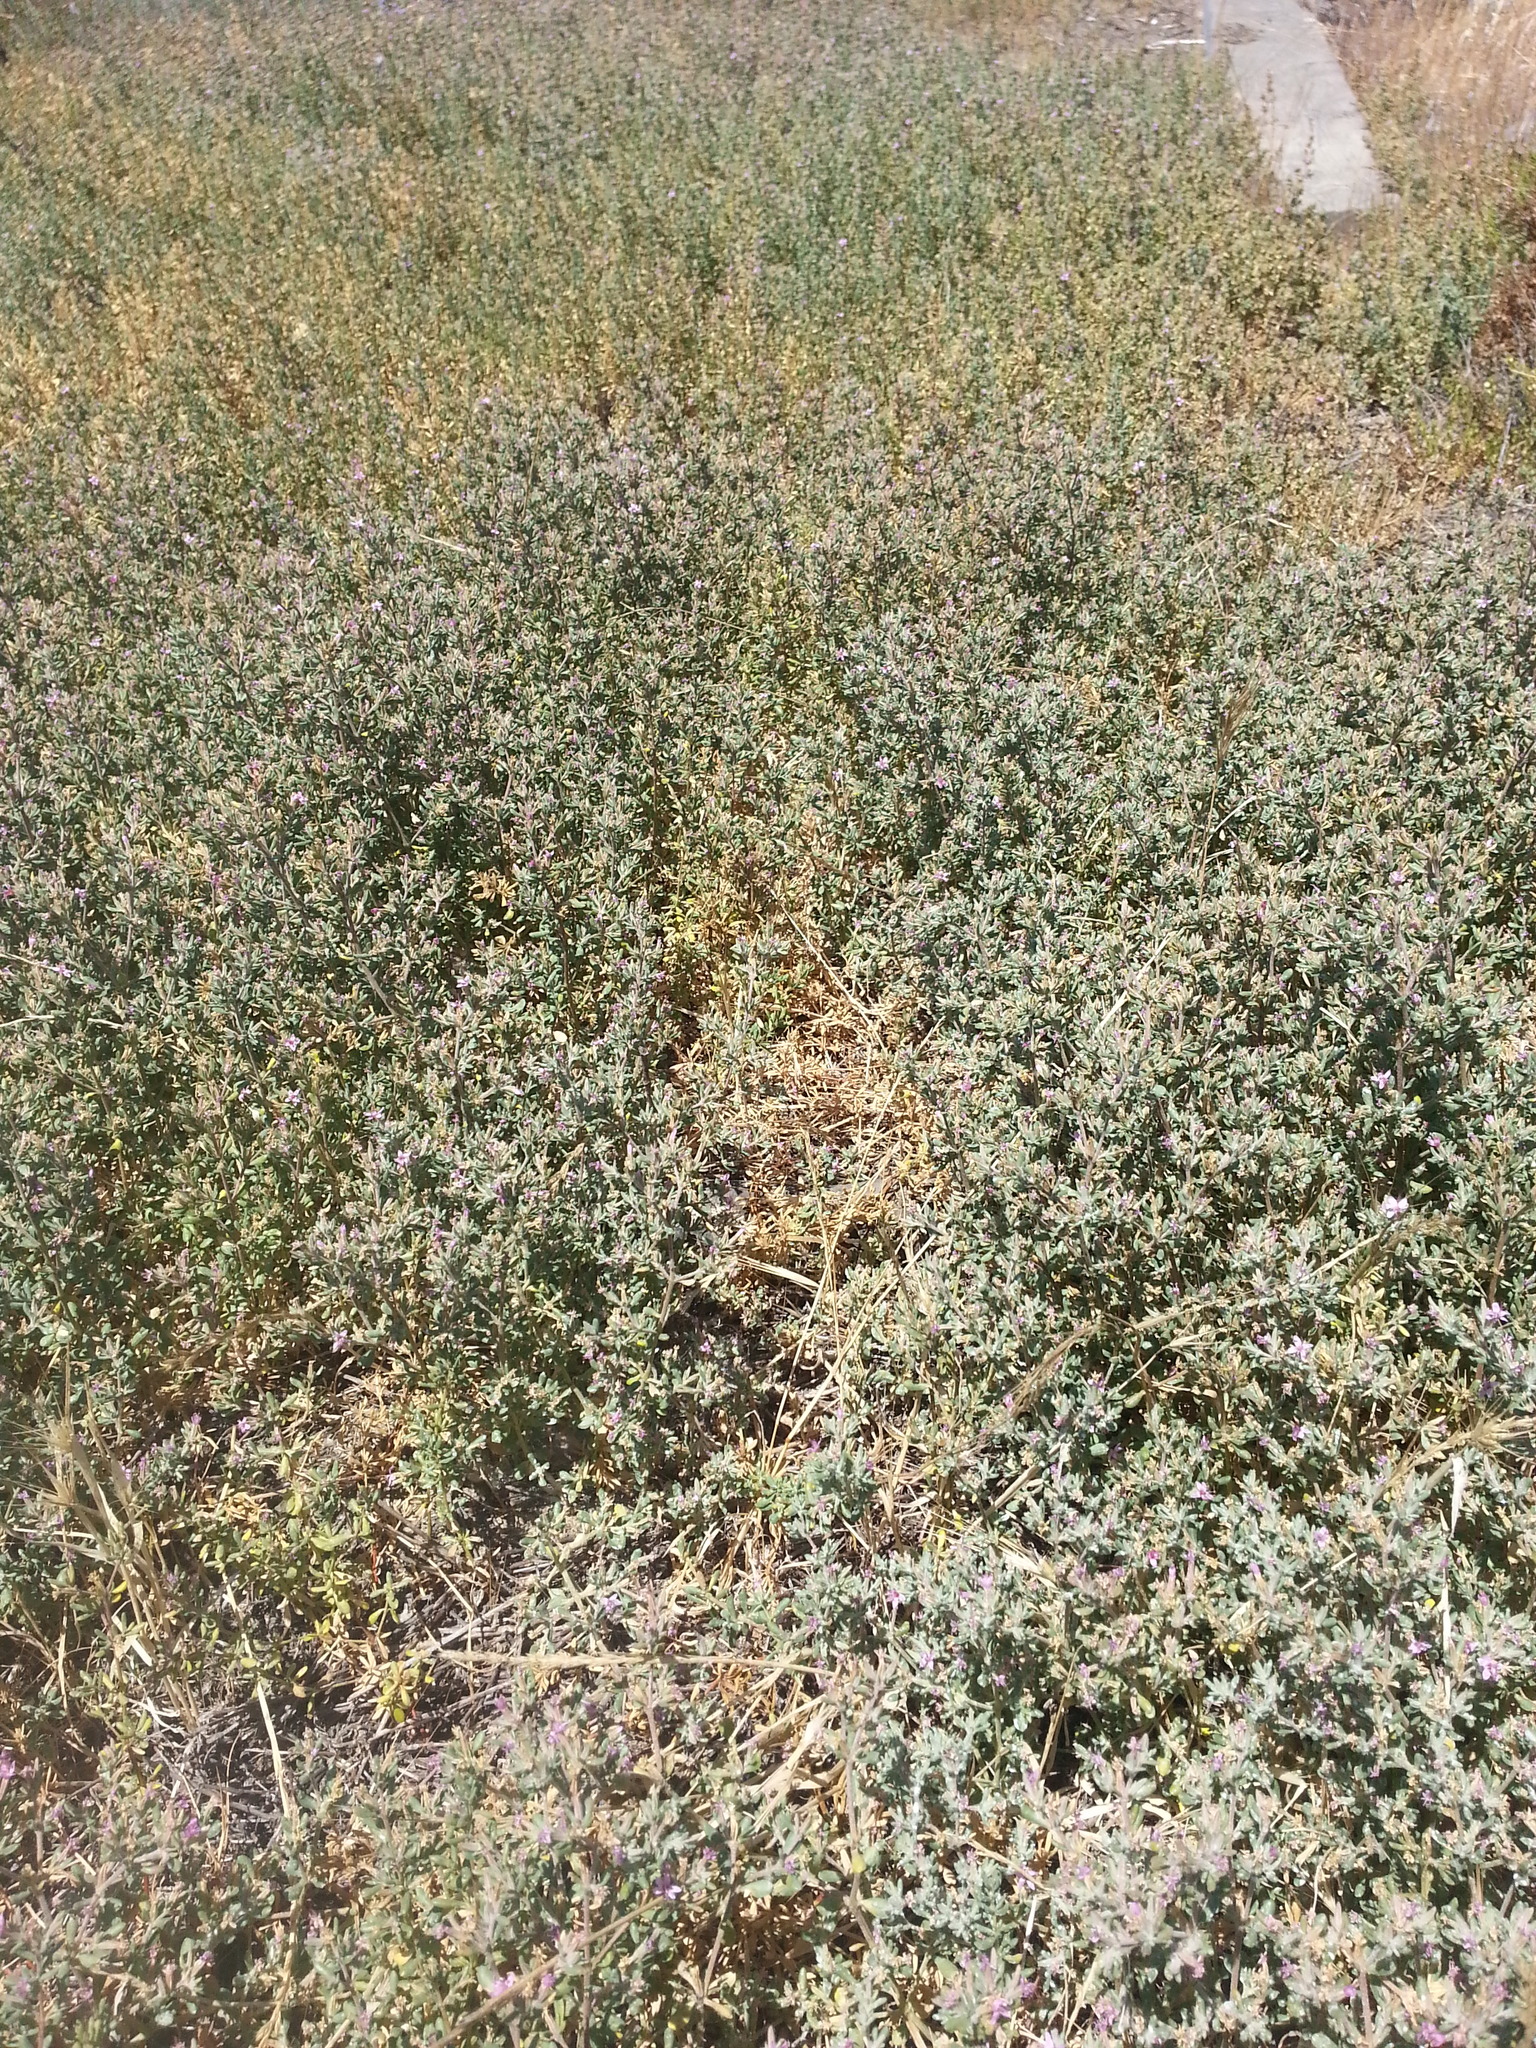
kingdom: Plantae
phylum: Tracheophyta
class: Magnoliopsida
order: Caryophyllales
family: Frankeniaceae
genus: Frankenia
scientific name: Frankenia salina
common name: Alkali seaheath
